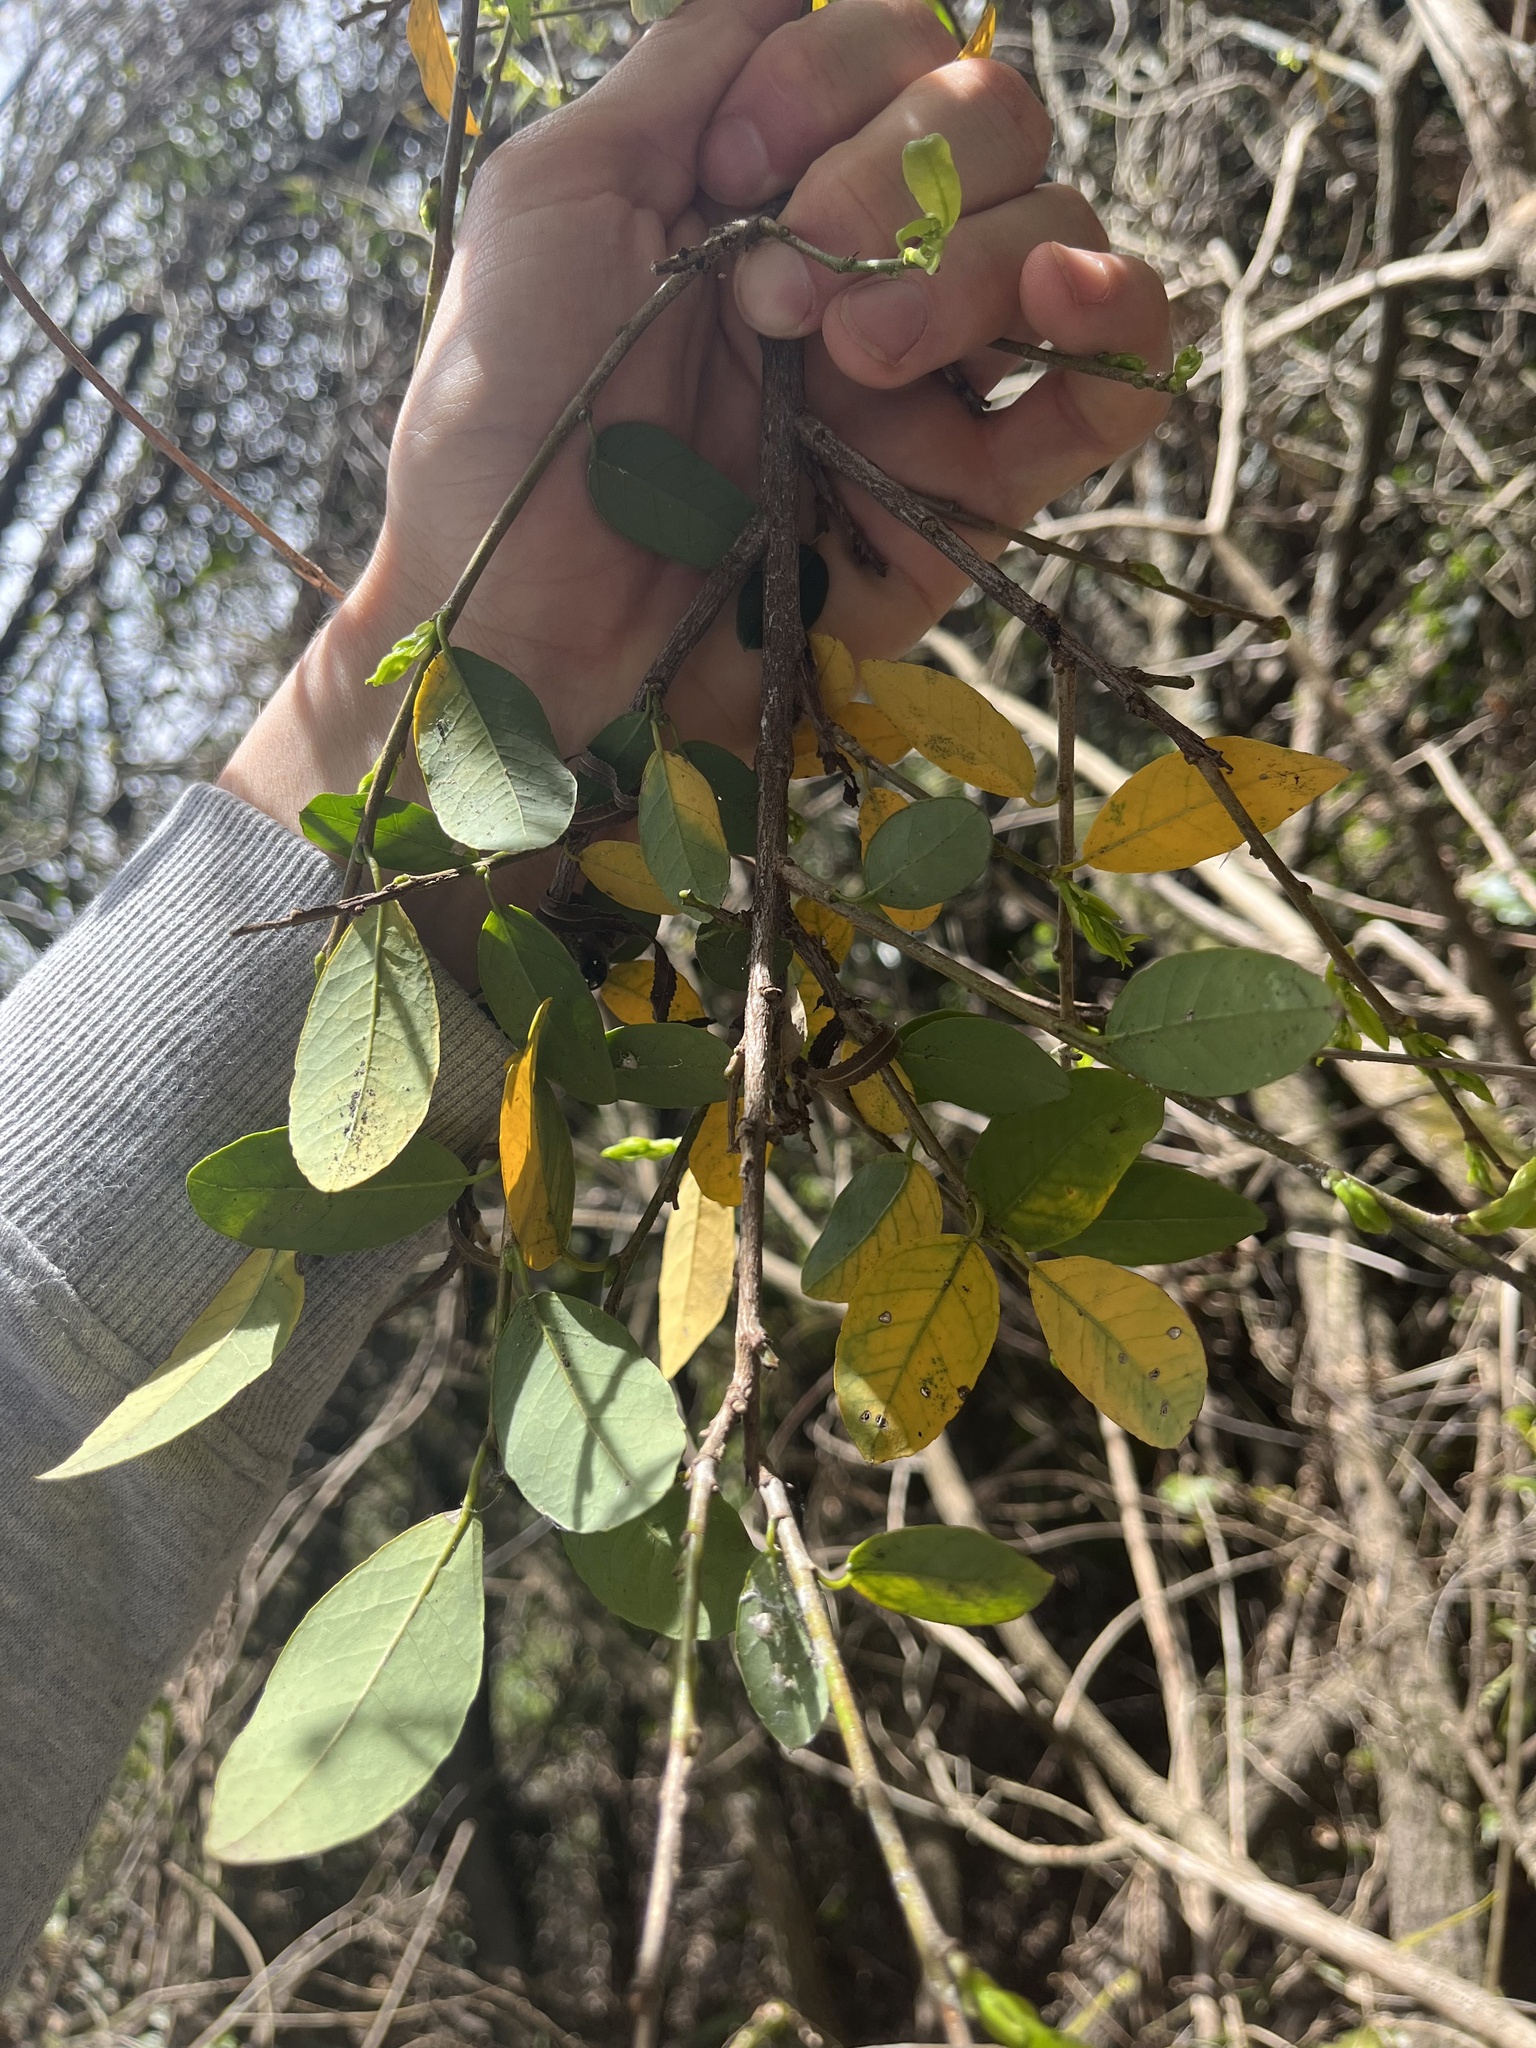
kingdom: Plantae
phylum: Tracheophyta
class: Magnoliopsida
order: Malpighiales
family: Euphorbiaceae
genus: Sebastiania
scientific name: Sebastiania klotzschiana
